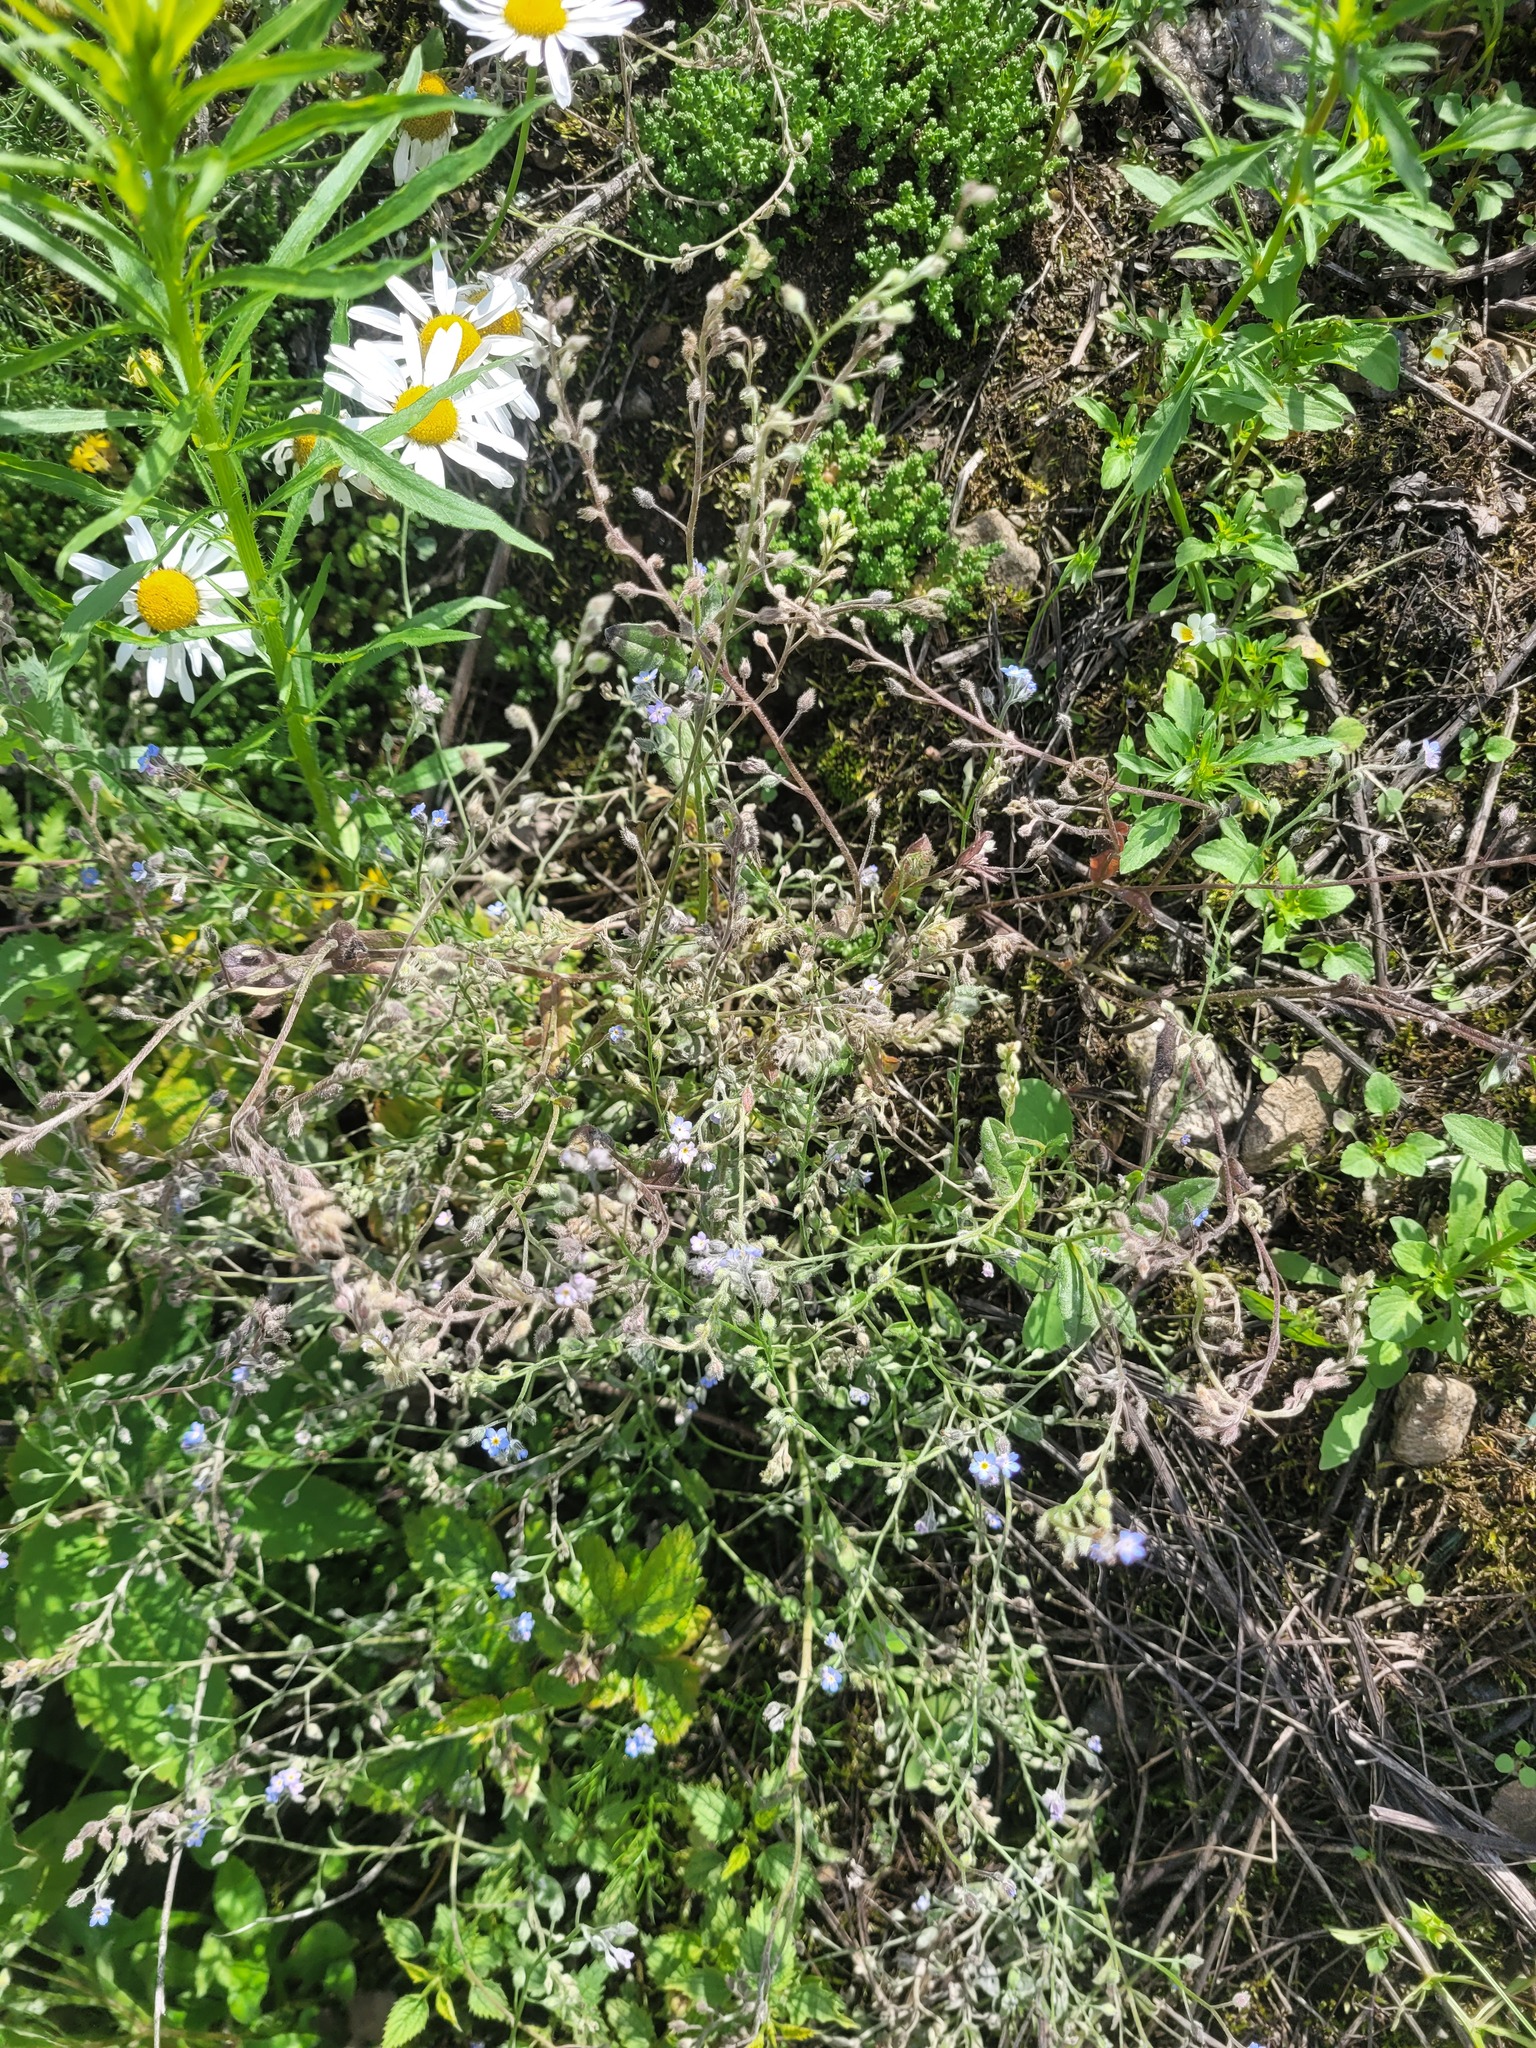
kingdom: Plantae
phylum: Tracheophyta
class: Magnoliopsida
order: Boraginales
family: Boraginaceae
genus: Myosotis
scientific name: Myosotis arvensis
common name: Field forget-me-not
